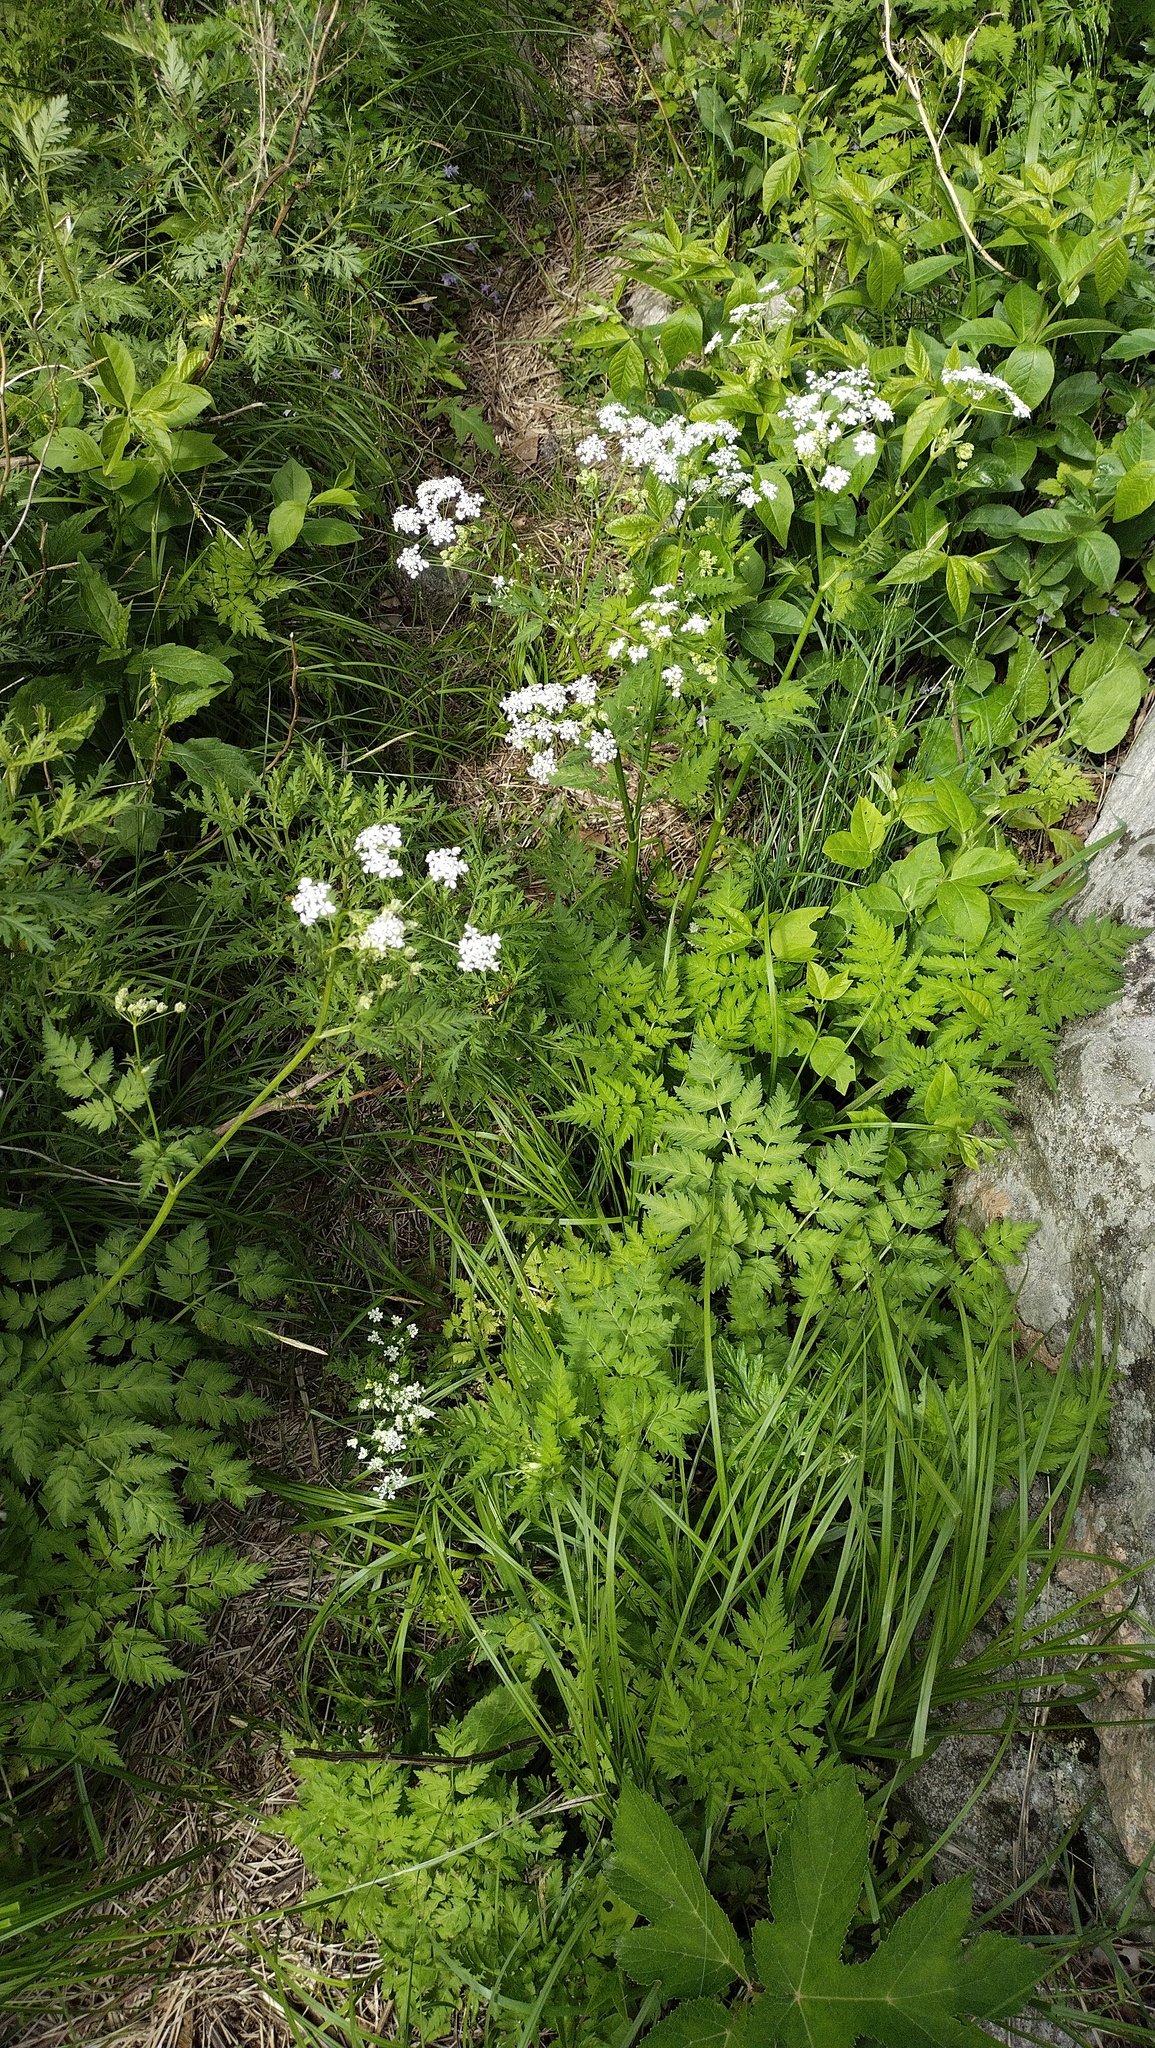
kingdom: Plantae
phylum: Tracheophyta
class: Magnoliopsida
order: Apiales
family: Apiaceae
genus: Anthriscus
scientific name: Anthriscus sylvestris
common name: Cow parsley
